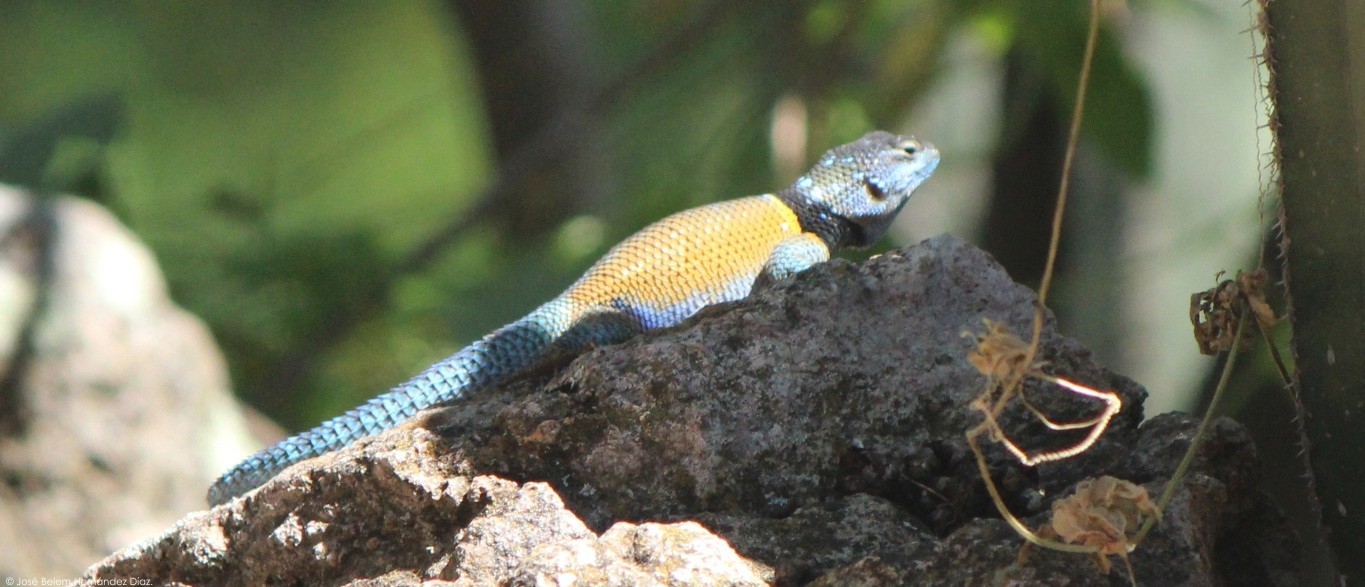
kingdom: Animalia
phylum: Chordata
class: Squamata
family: Phrynosomatidae
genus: Sceloporus
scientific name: Sceloporus minor
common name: Minor lizard
